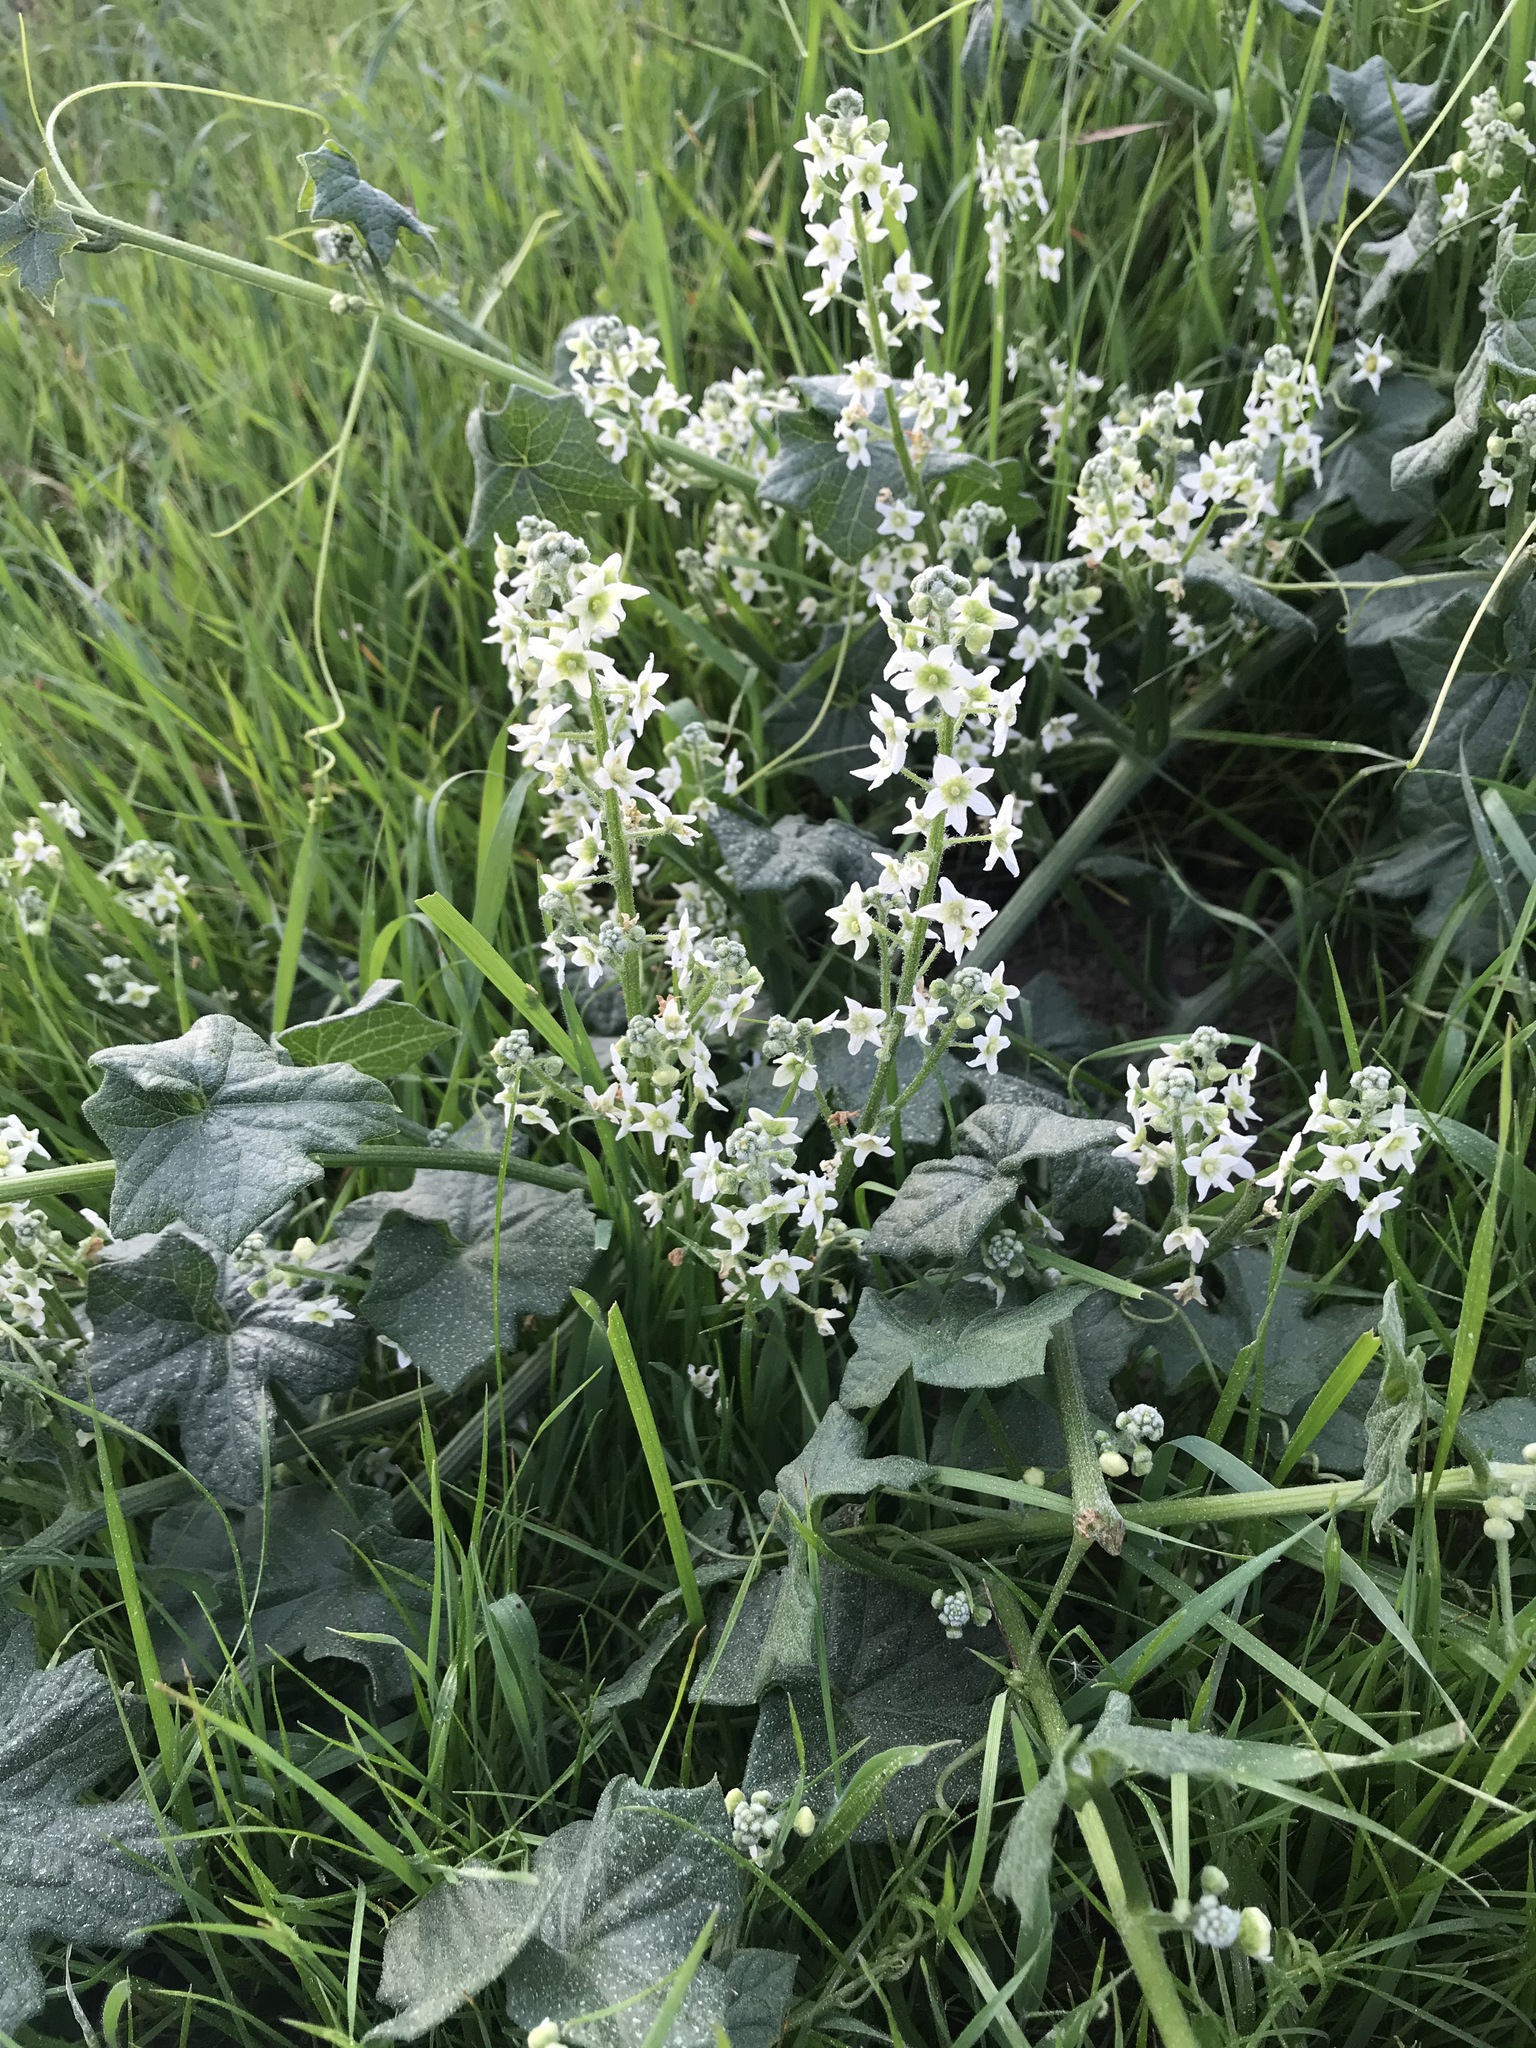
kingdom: Plantae
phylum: Tracheophyta
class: Magnoliopsida
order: Cucurbitales
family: Cucurbitaceae
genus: Marah
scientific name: Marah fabacea
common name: California manroot
